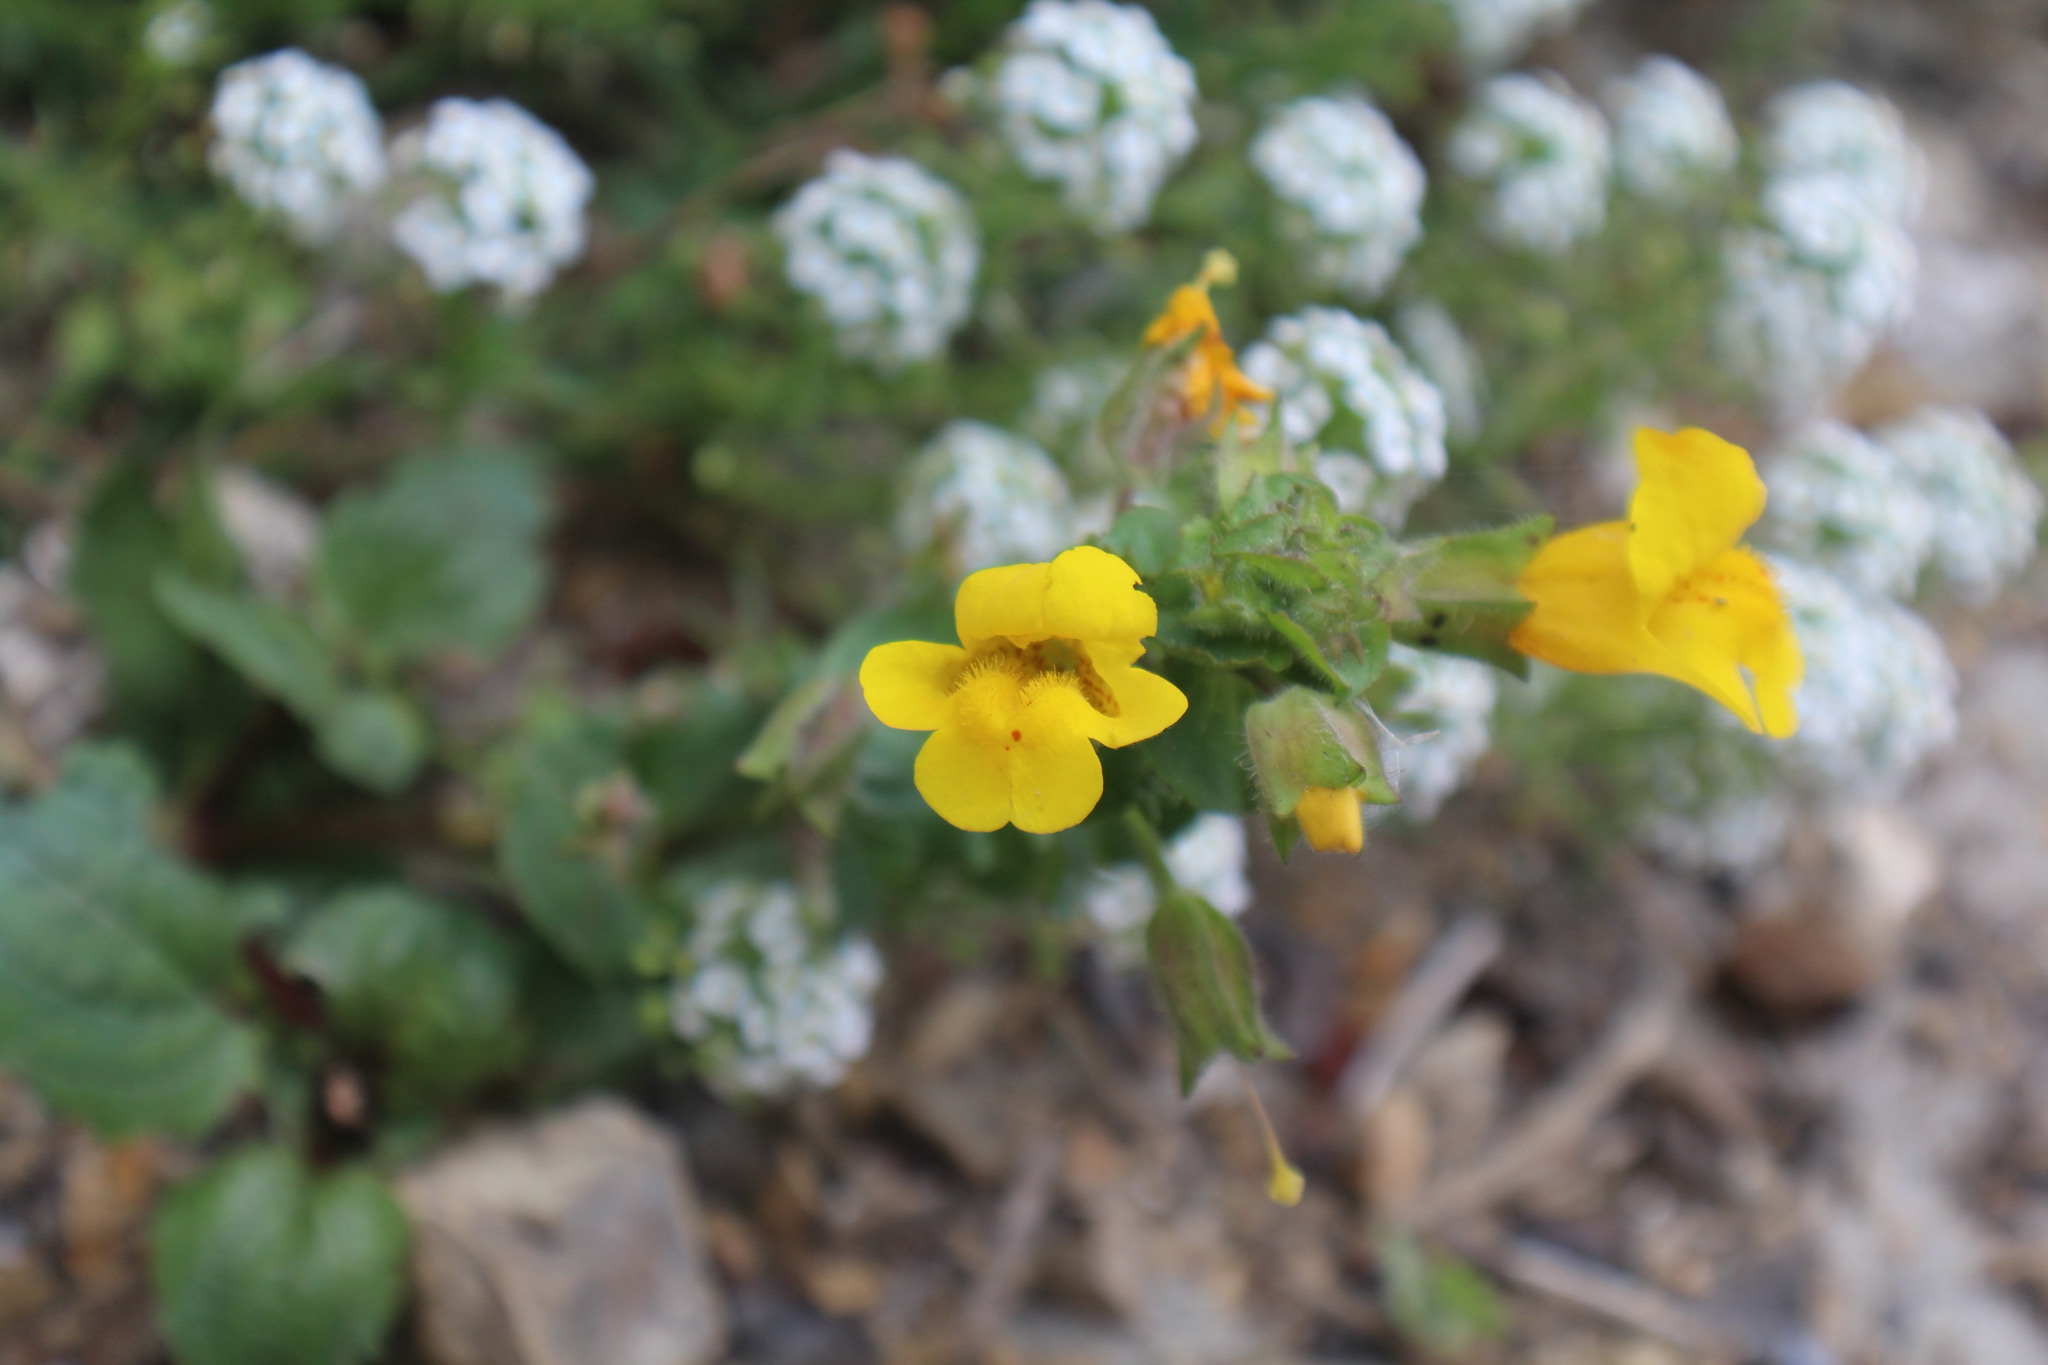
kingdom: Plantae
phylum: Tracheophyta
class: Magnoliopsida
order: Lamiales
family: Phrymaceae
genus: Erythranthe
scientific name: Erythranthe grandis
